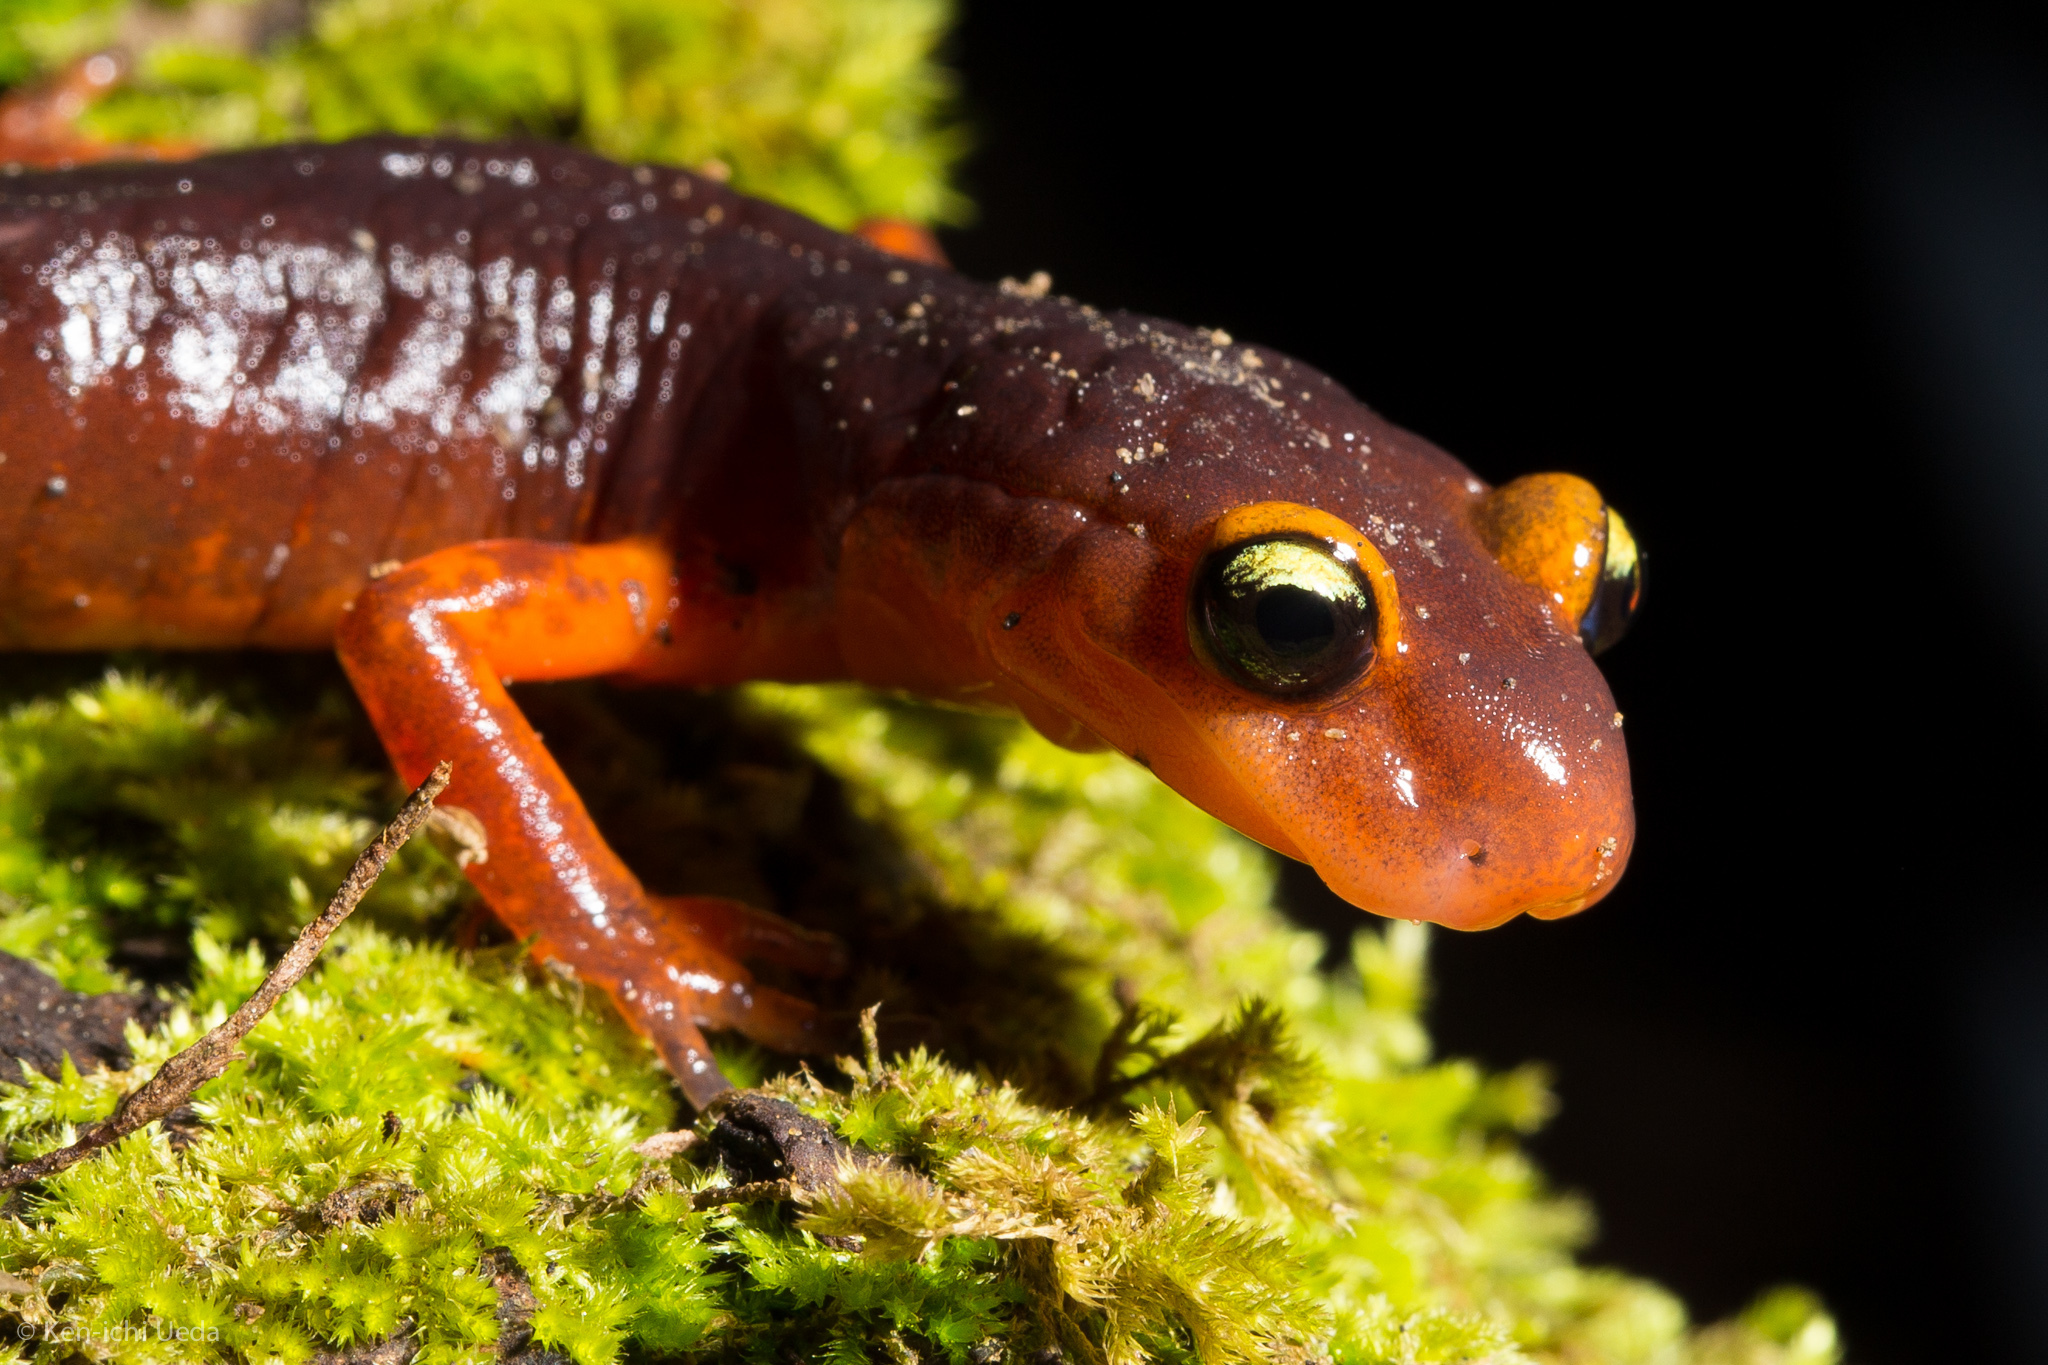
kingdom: Animalia
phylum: Chordata
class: Amphibia
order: Caudata
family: Plethodontidae
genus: Ensatina
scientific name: Ensatina eschscholtzii
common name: Ensatina
